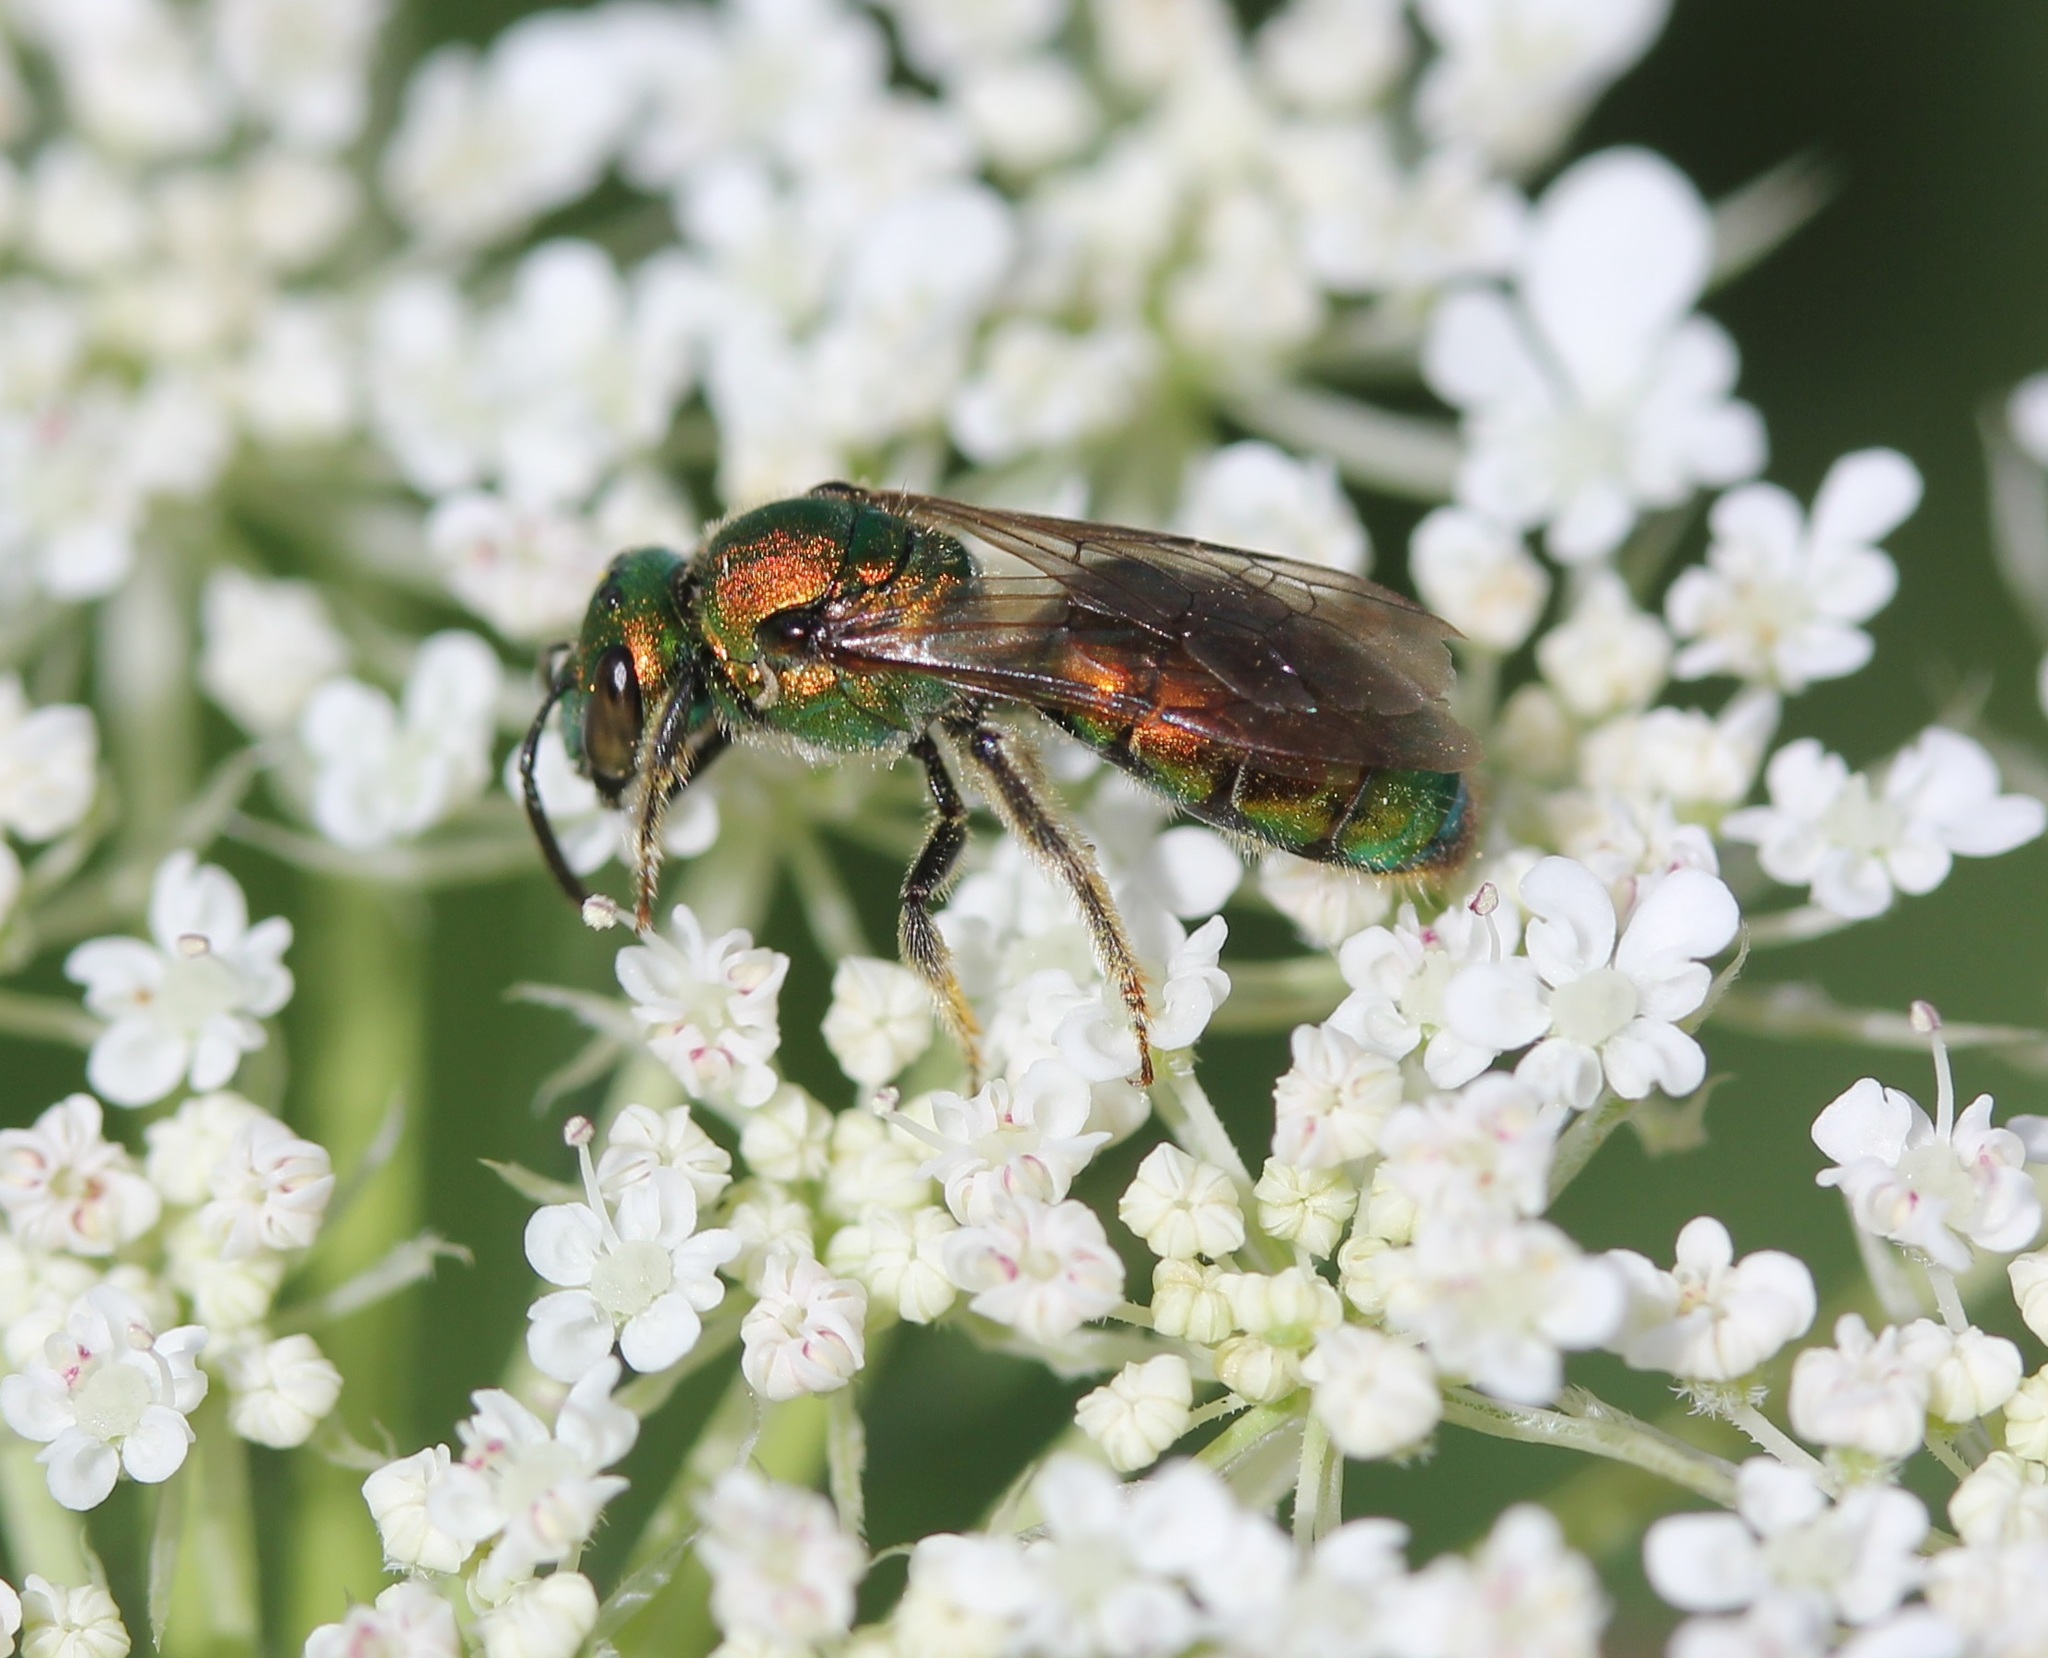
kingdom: Animalia
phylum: Arthropoda
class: Insecta
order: Hymenoptera
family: Halictidae
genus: Augochlora
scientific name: Augochlora pura
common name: Pure green sweat bee
